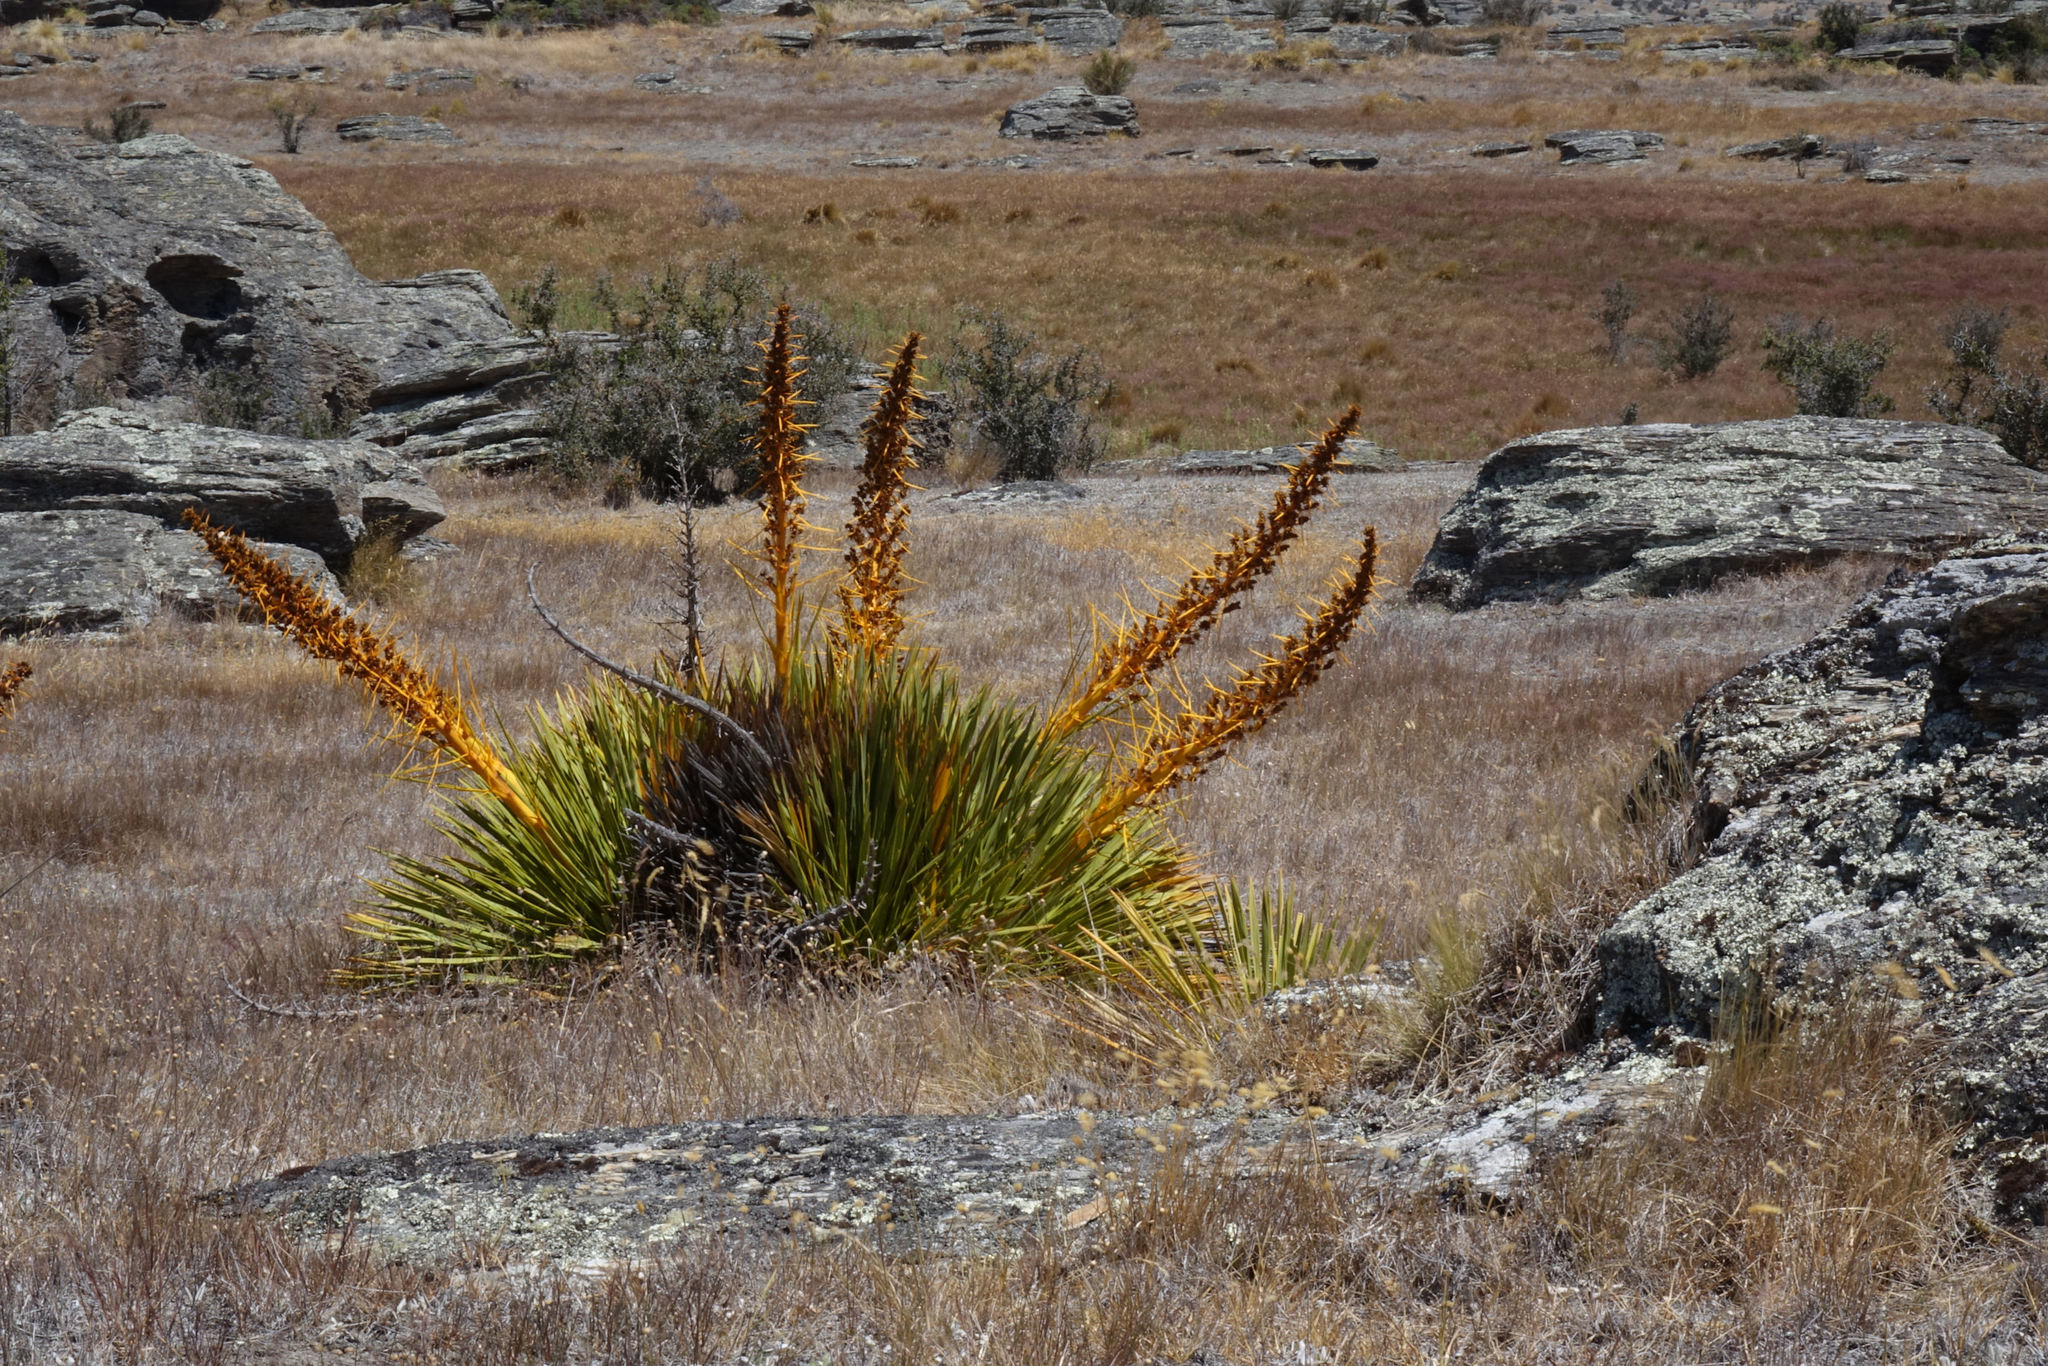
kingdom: Plantae
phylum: Tracheophyta
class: Magnoliopsida
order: Apiales
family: Apiaceae
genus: Aciphylla
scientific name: Aciphylla aurea
